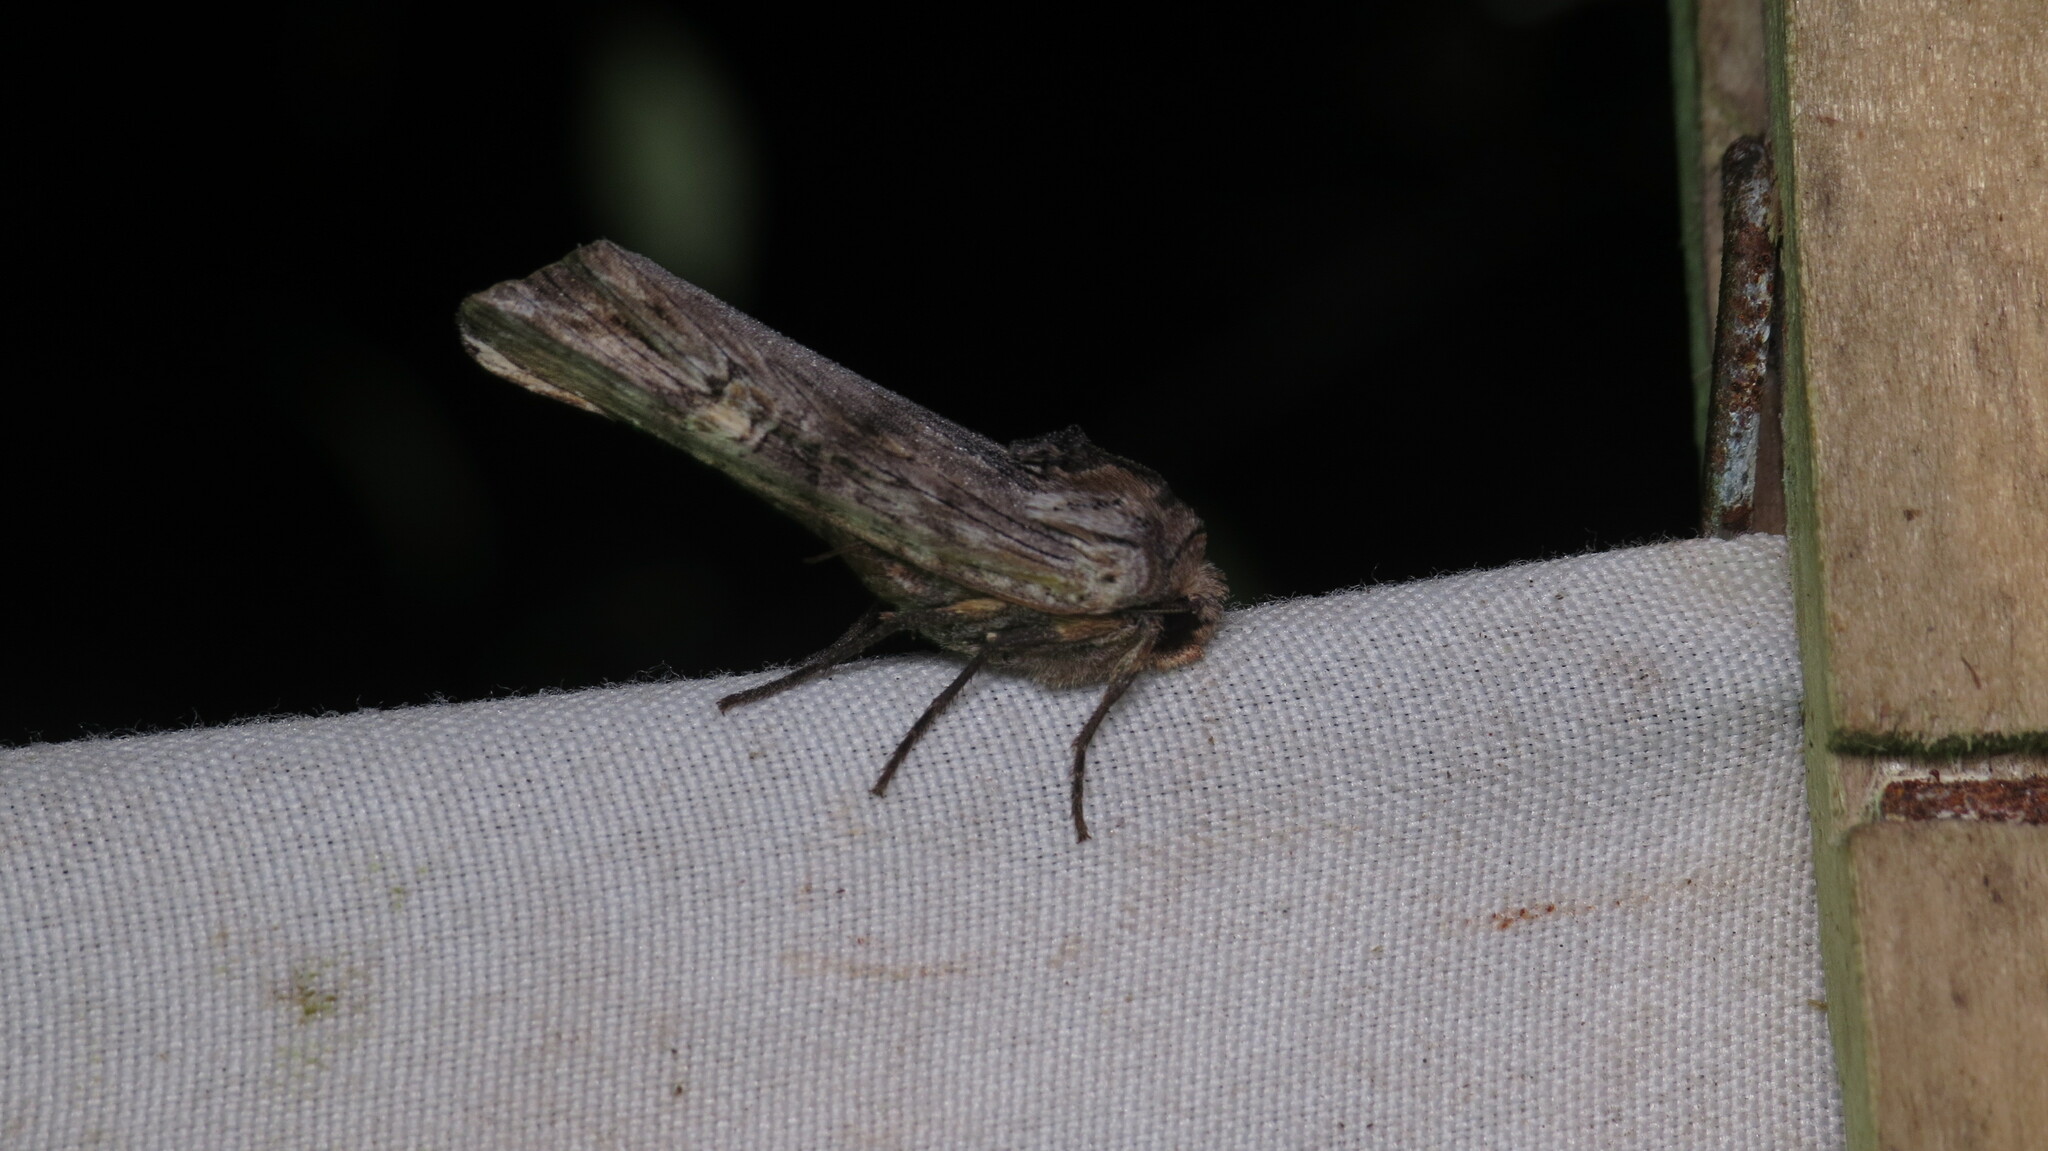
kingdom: Animalia
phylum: Arthropoda
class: Insecta
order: Lepidoptera
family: Noctuidae
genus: Xylena
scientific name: Xylena germana
